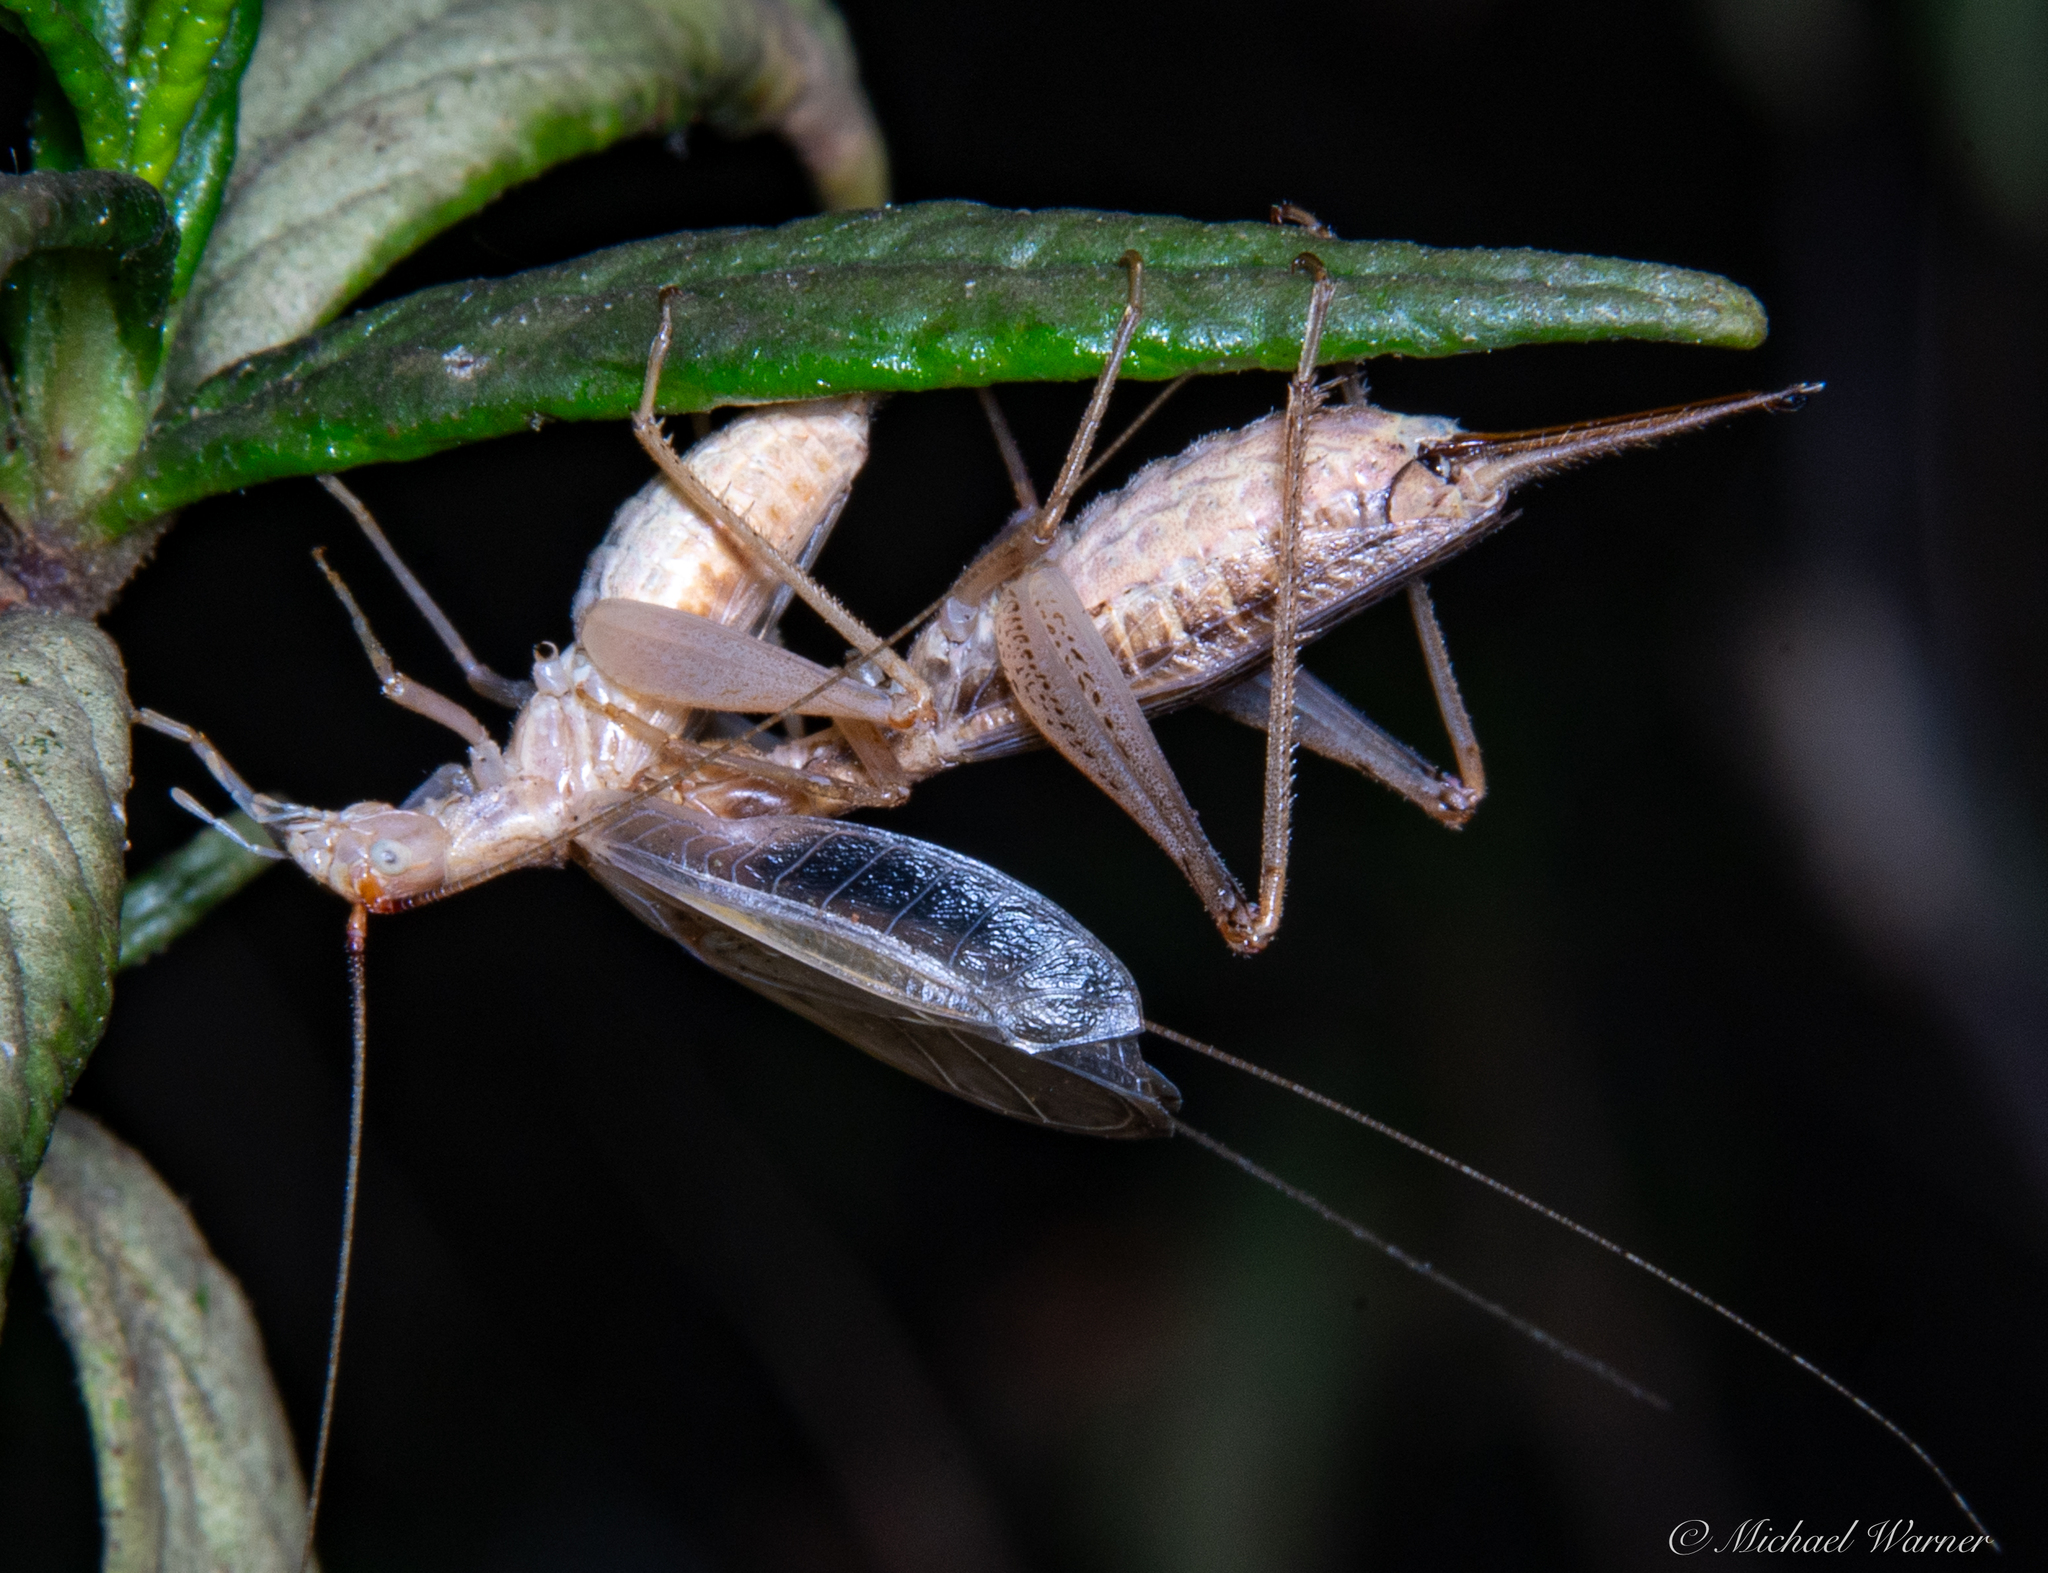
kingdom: Animalia
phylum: Arthropoda
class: Insecta
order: Orthoptera
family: Gryllidae
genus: Oecanthus
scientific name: Oecanthus californicus
